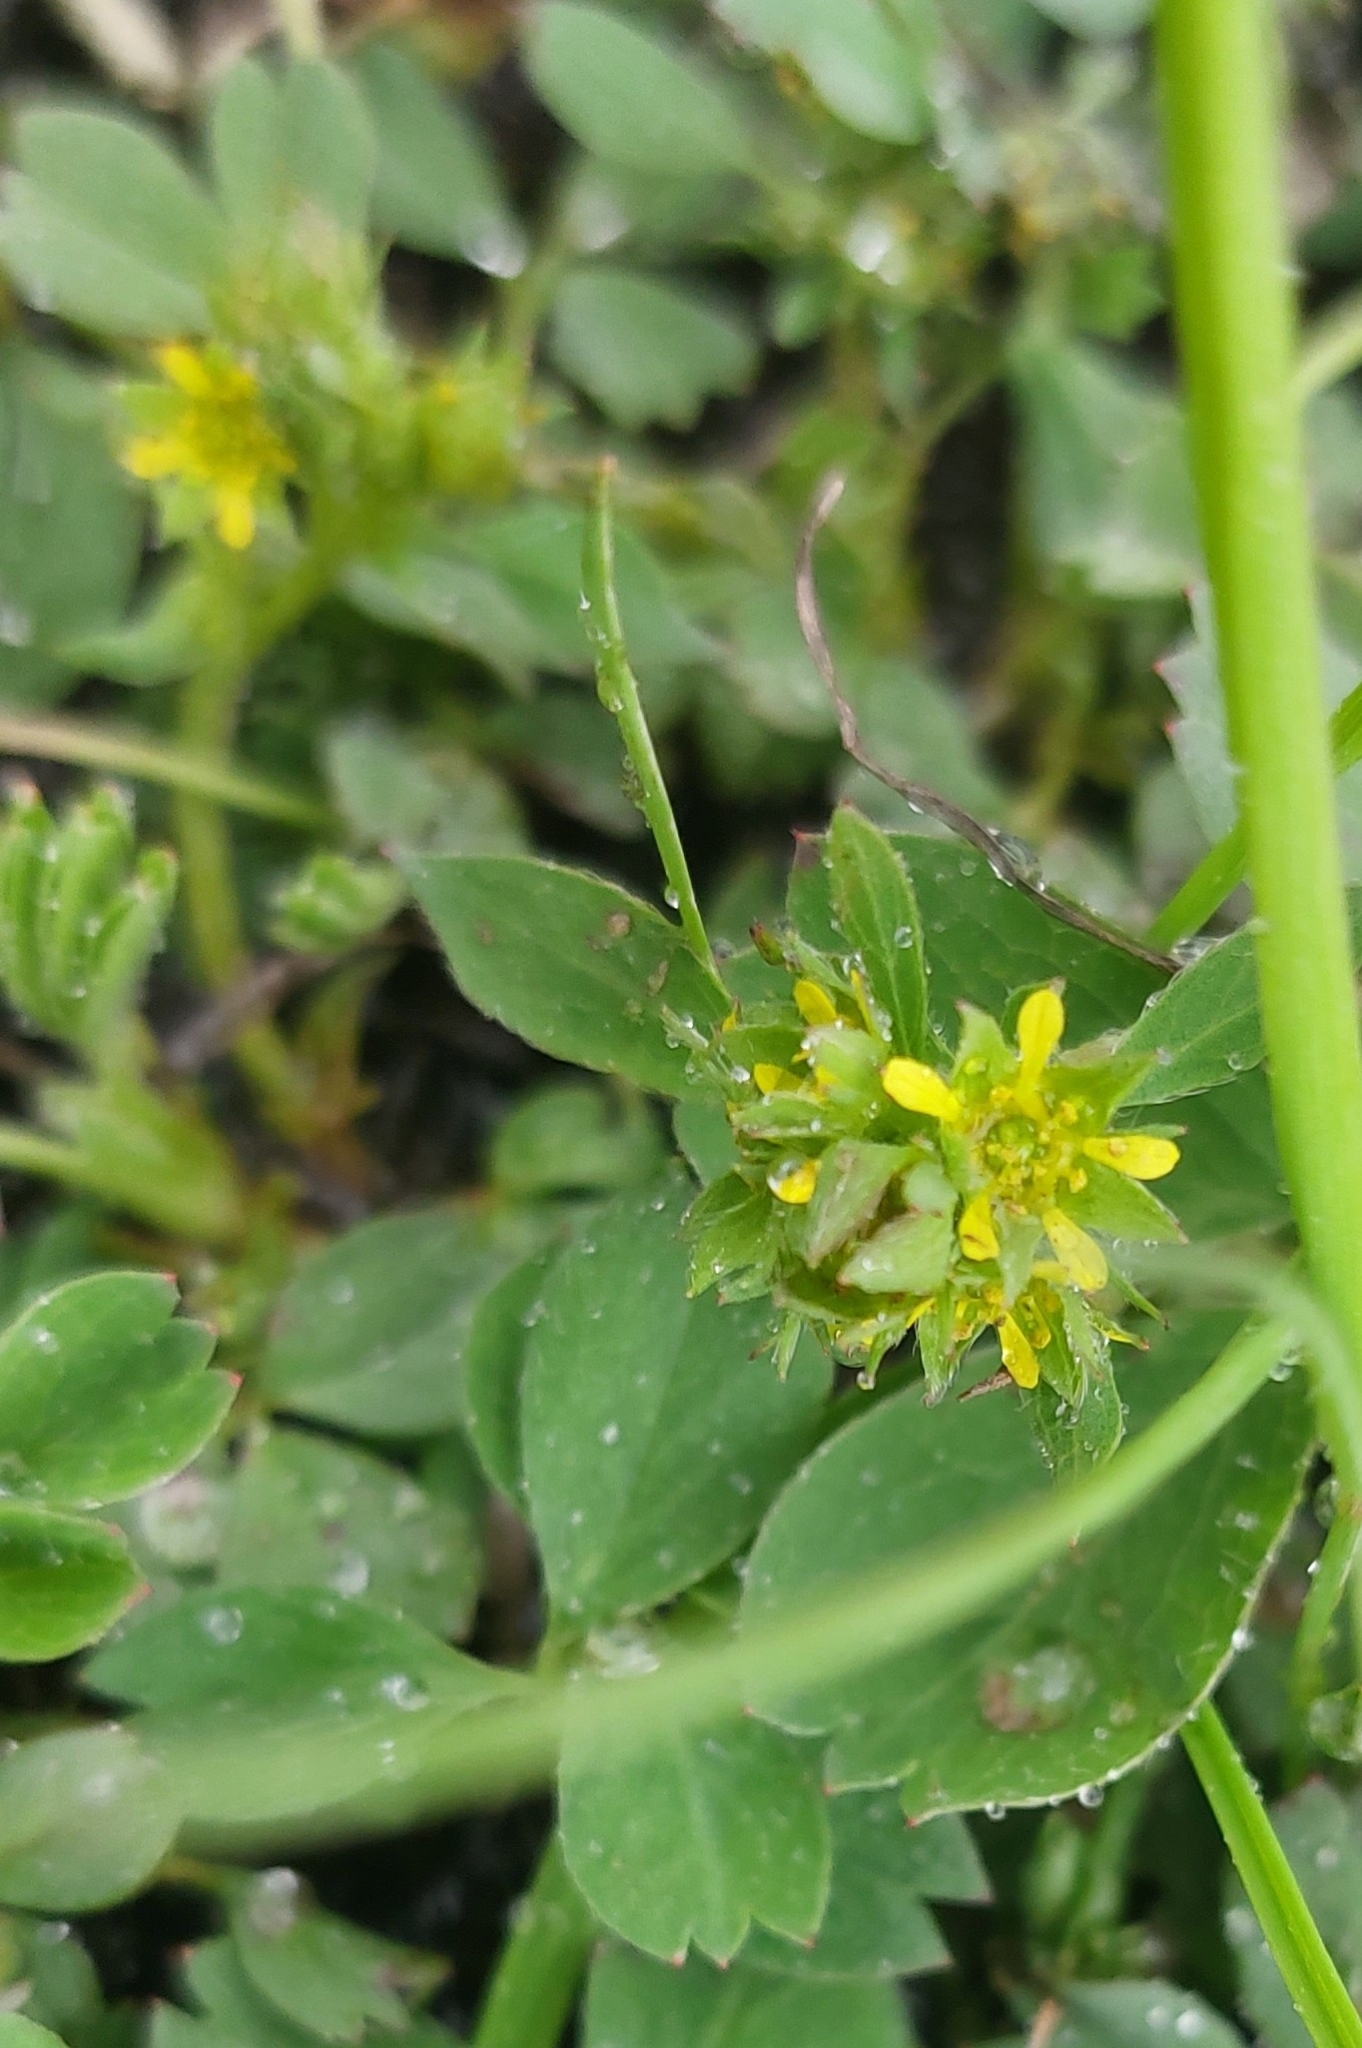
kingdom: Plantae
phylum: Tracheophyta
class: Magnoliopsida
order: Rosales
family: Rosaceae
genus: Sibbaldia
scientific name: Sibbaldia procumbens
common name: Creeping sibbaldia
